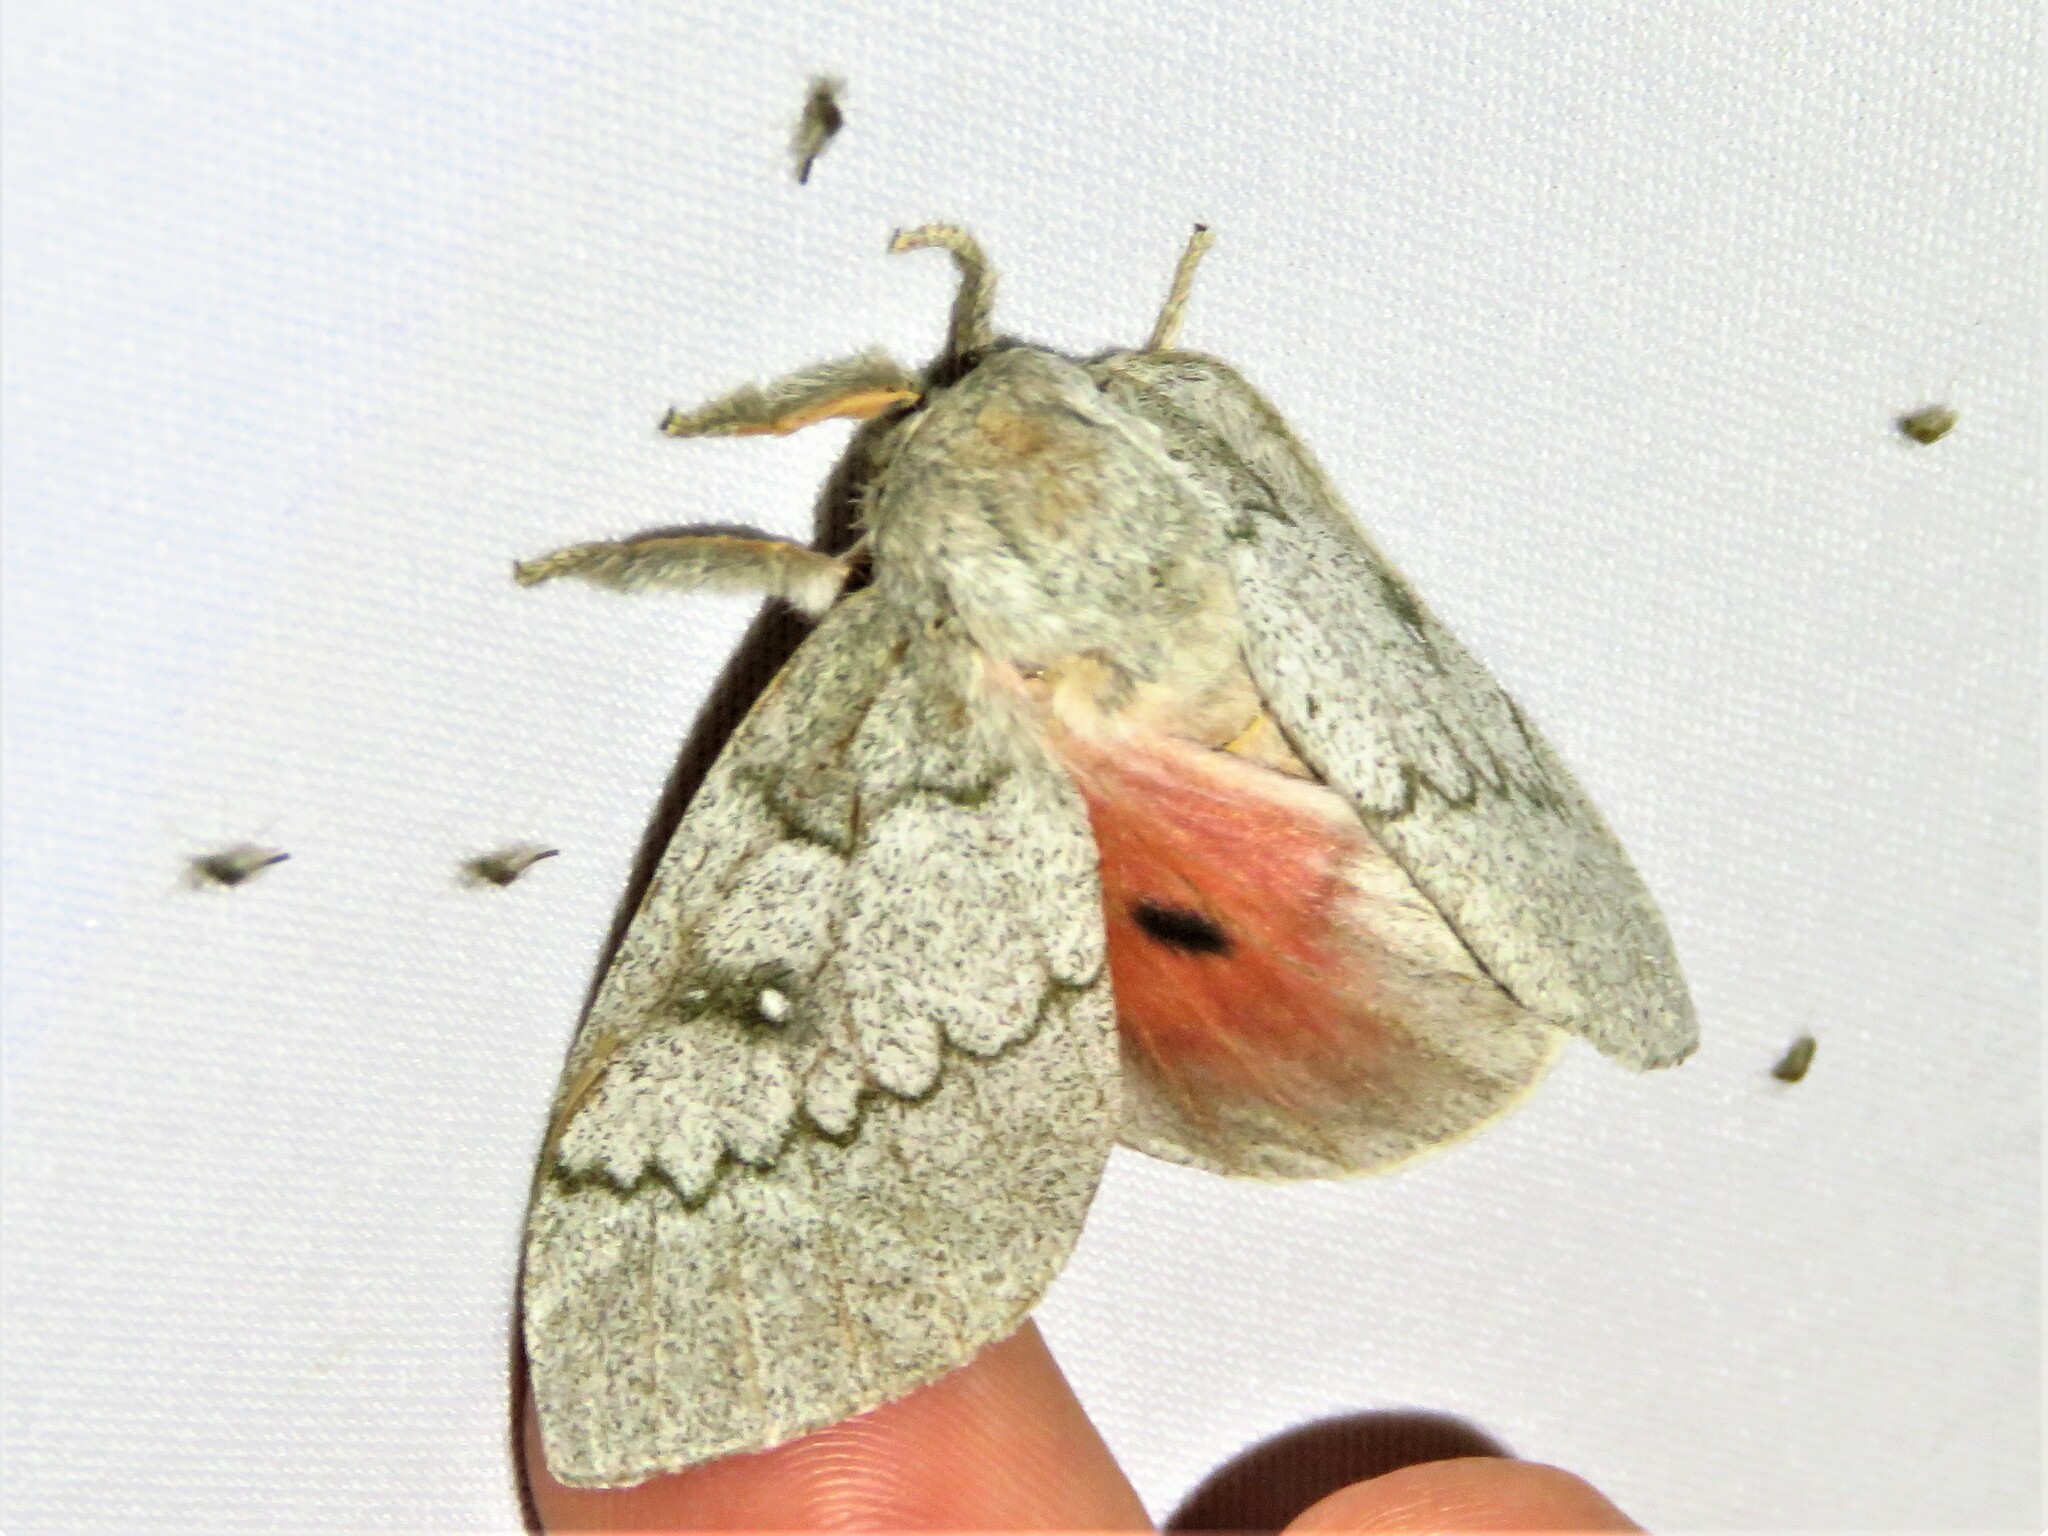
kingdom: Animalia
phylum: Arthropoda
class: Insecta
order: Lepidoptera
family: Saturniidae
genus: Syssphinx
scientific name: Syssphinx heiligbrodti
